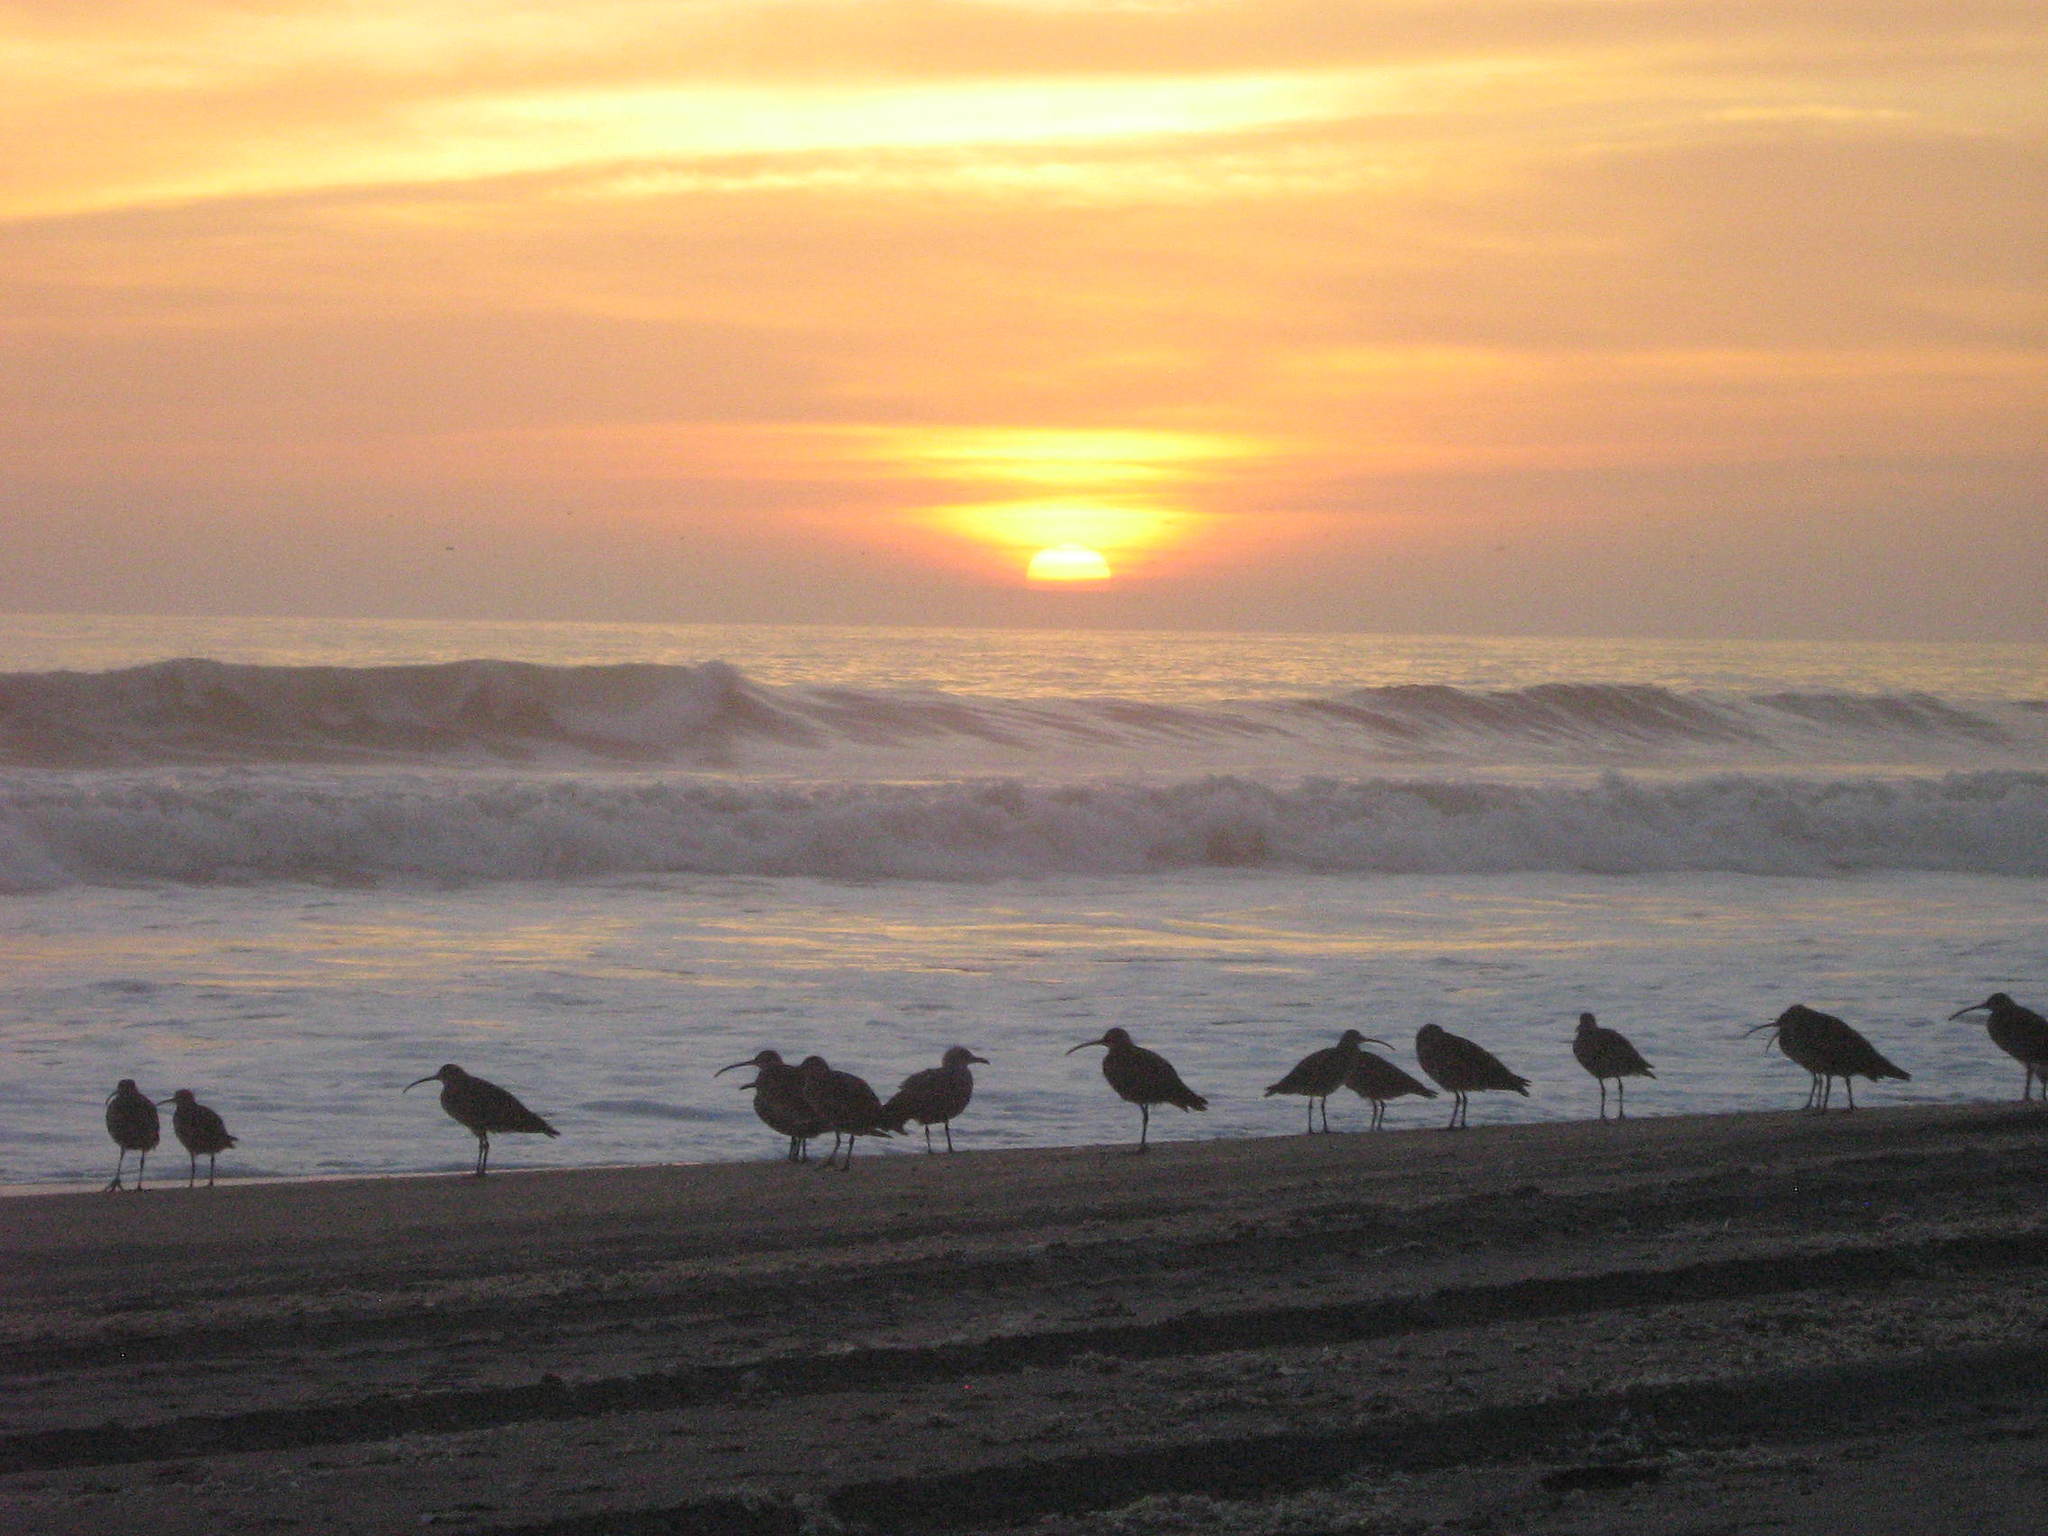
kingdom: Animalia
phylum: Chordata
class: Aves
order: Charadriiformes
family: Scolopacidae
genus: Numenius
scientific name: Numenius phaeopus
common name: Whimbrel
